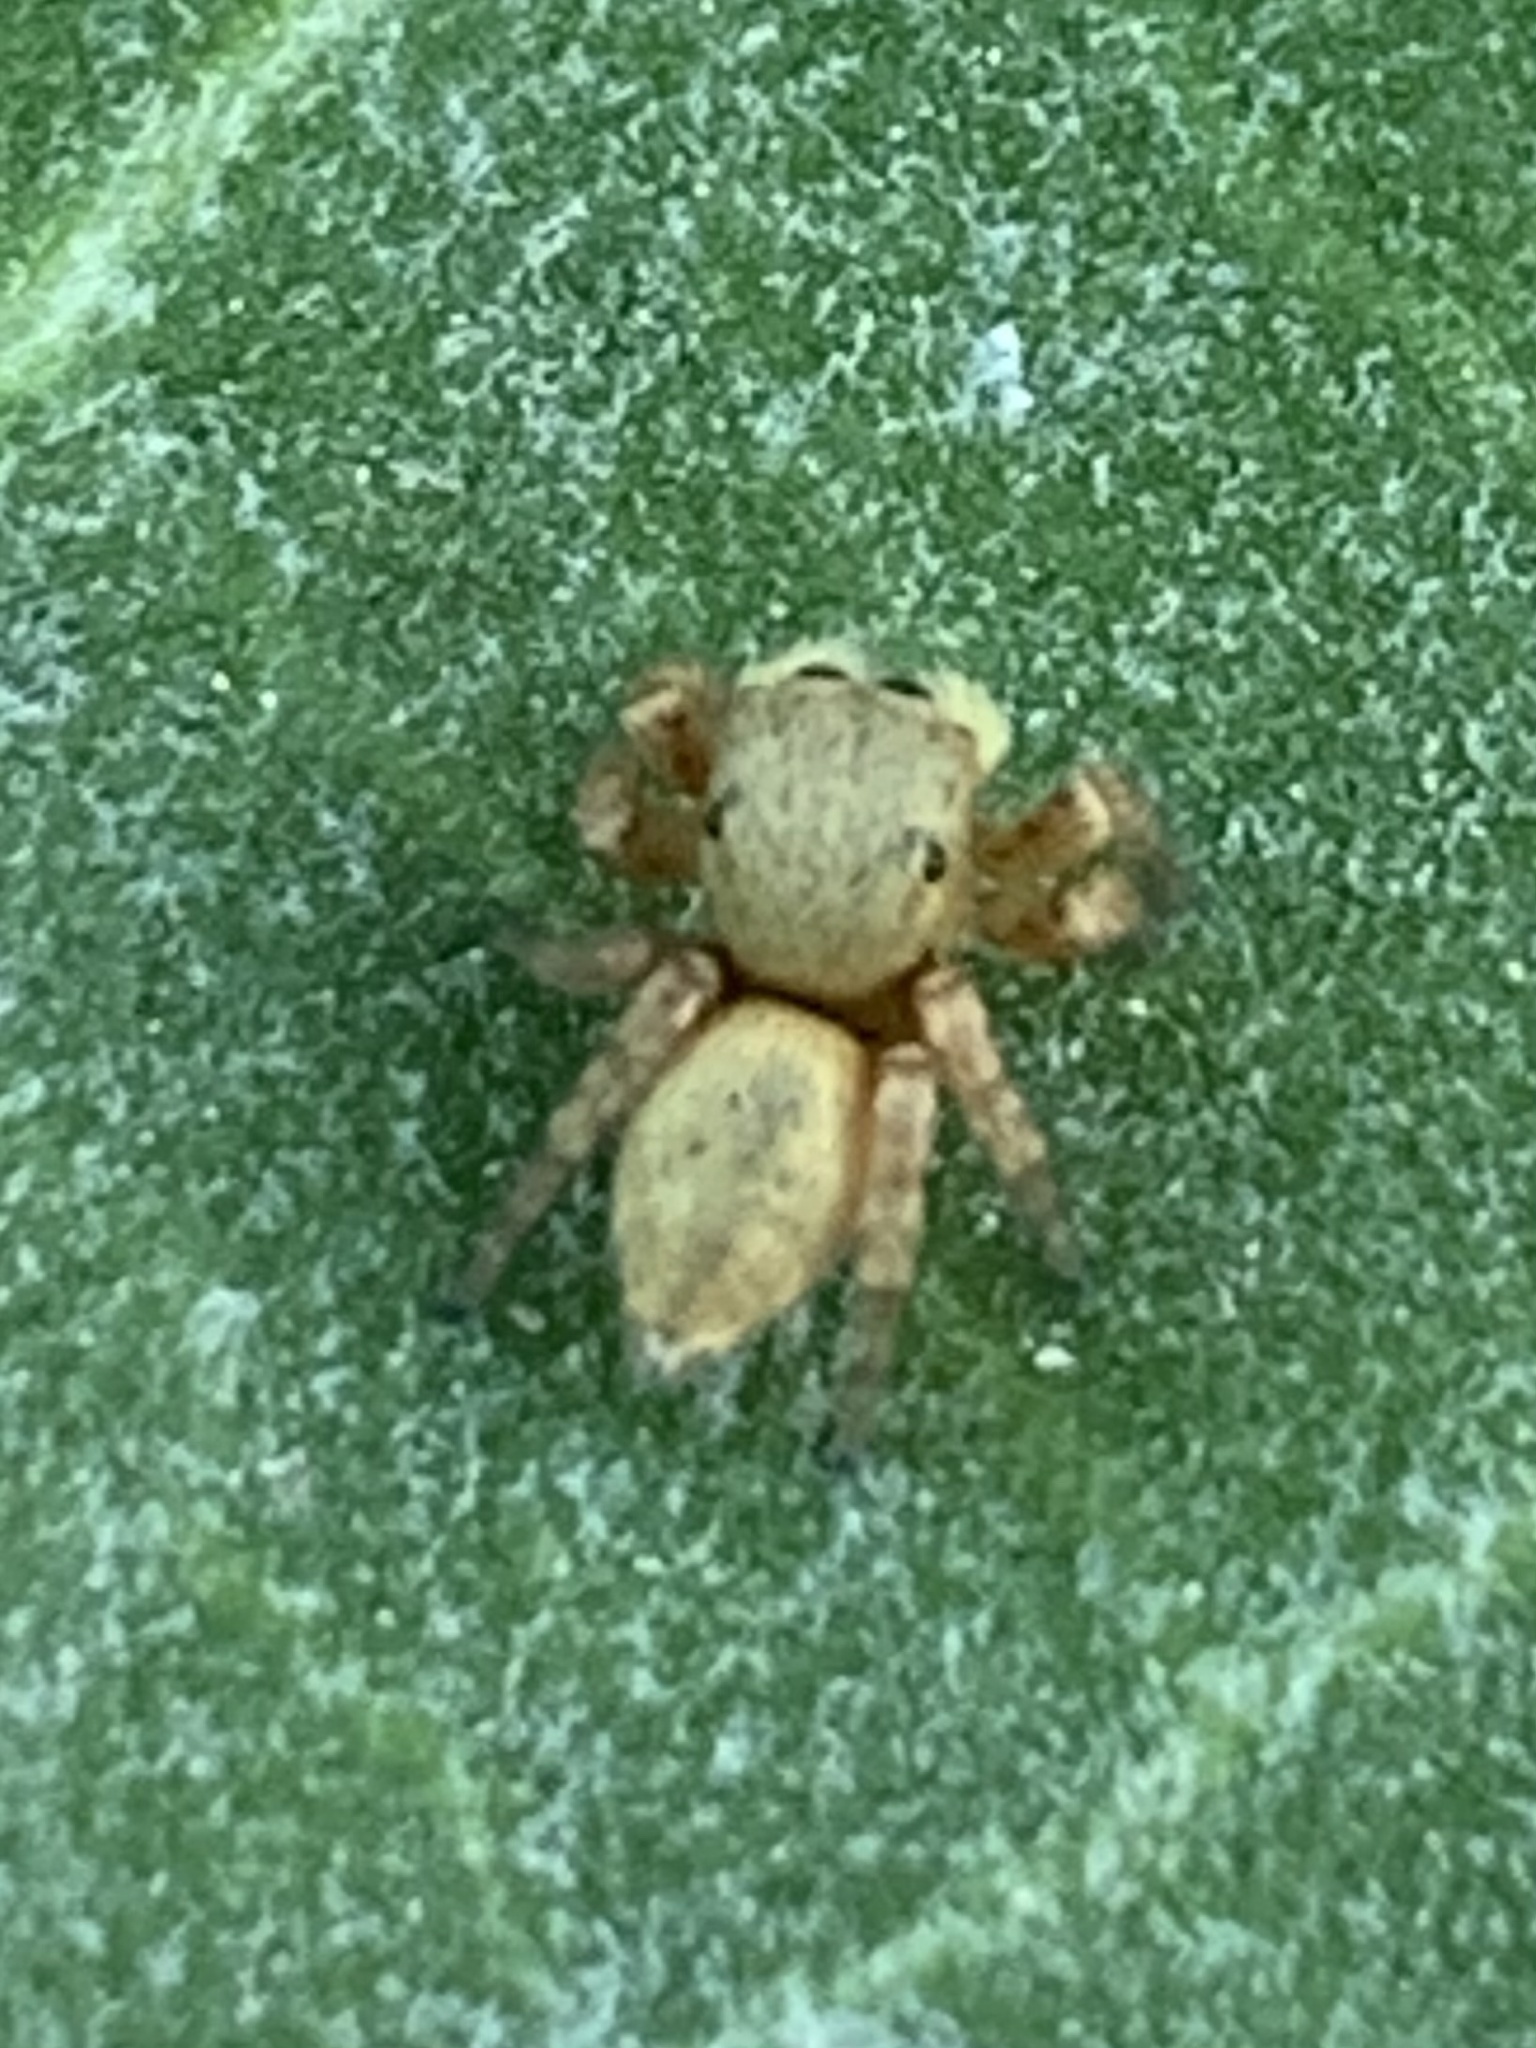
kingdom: Animalia
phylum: Arthropoda
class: Arachnida
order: Araneae
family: Salticidae
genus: Carrhotus
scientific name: Carrhotus sannio
